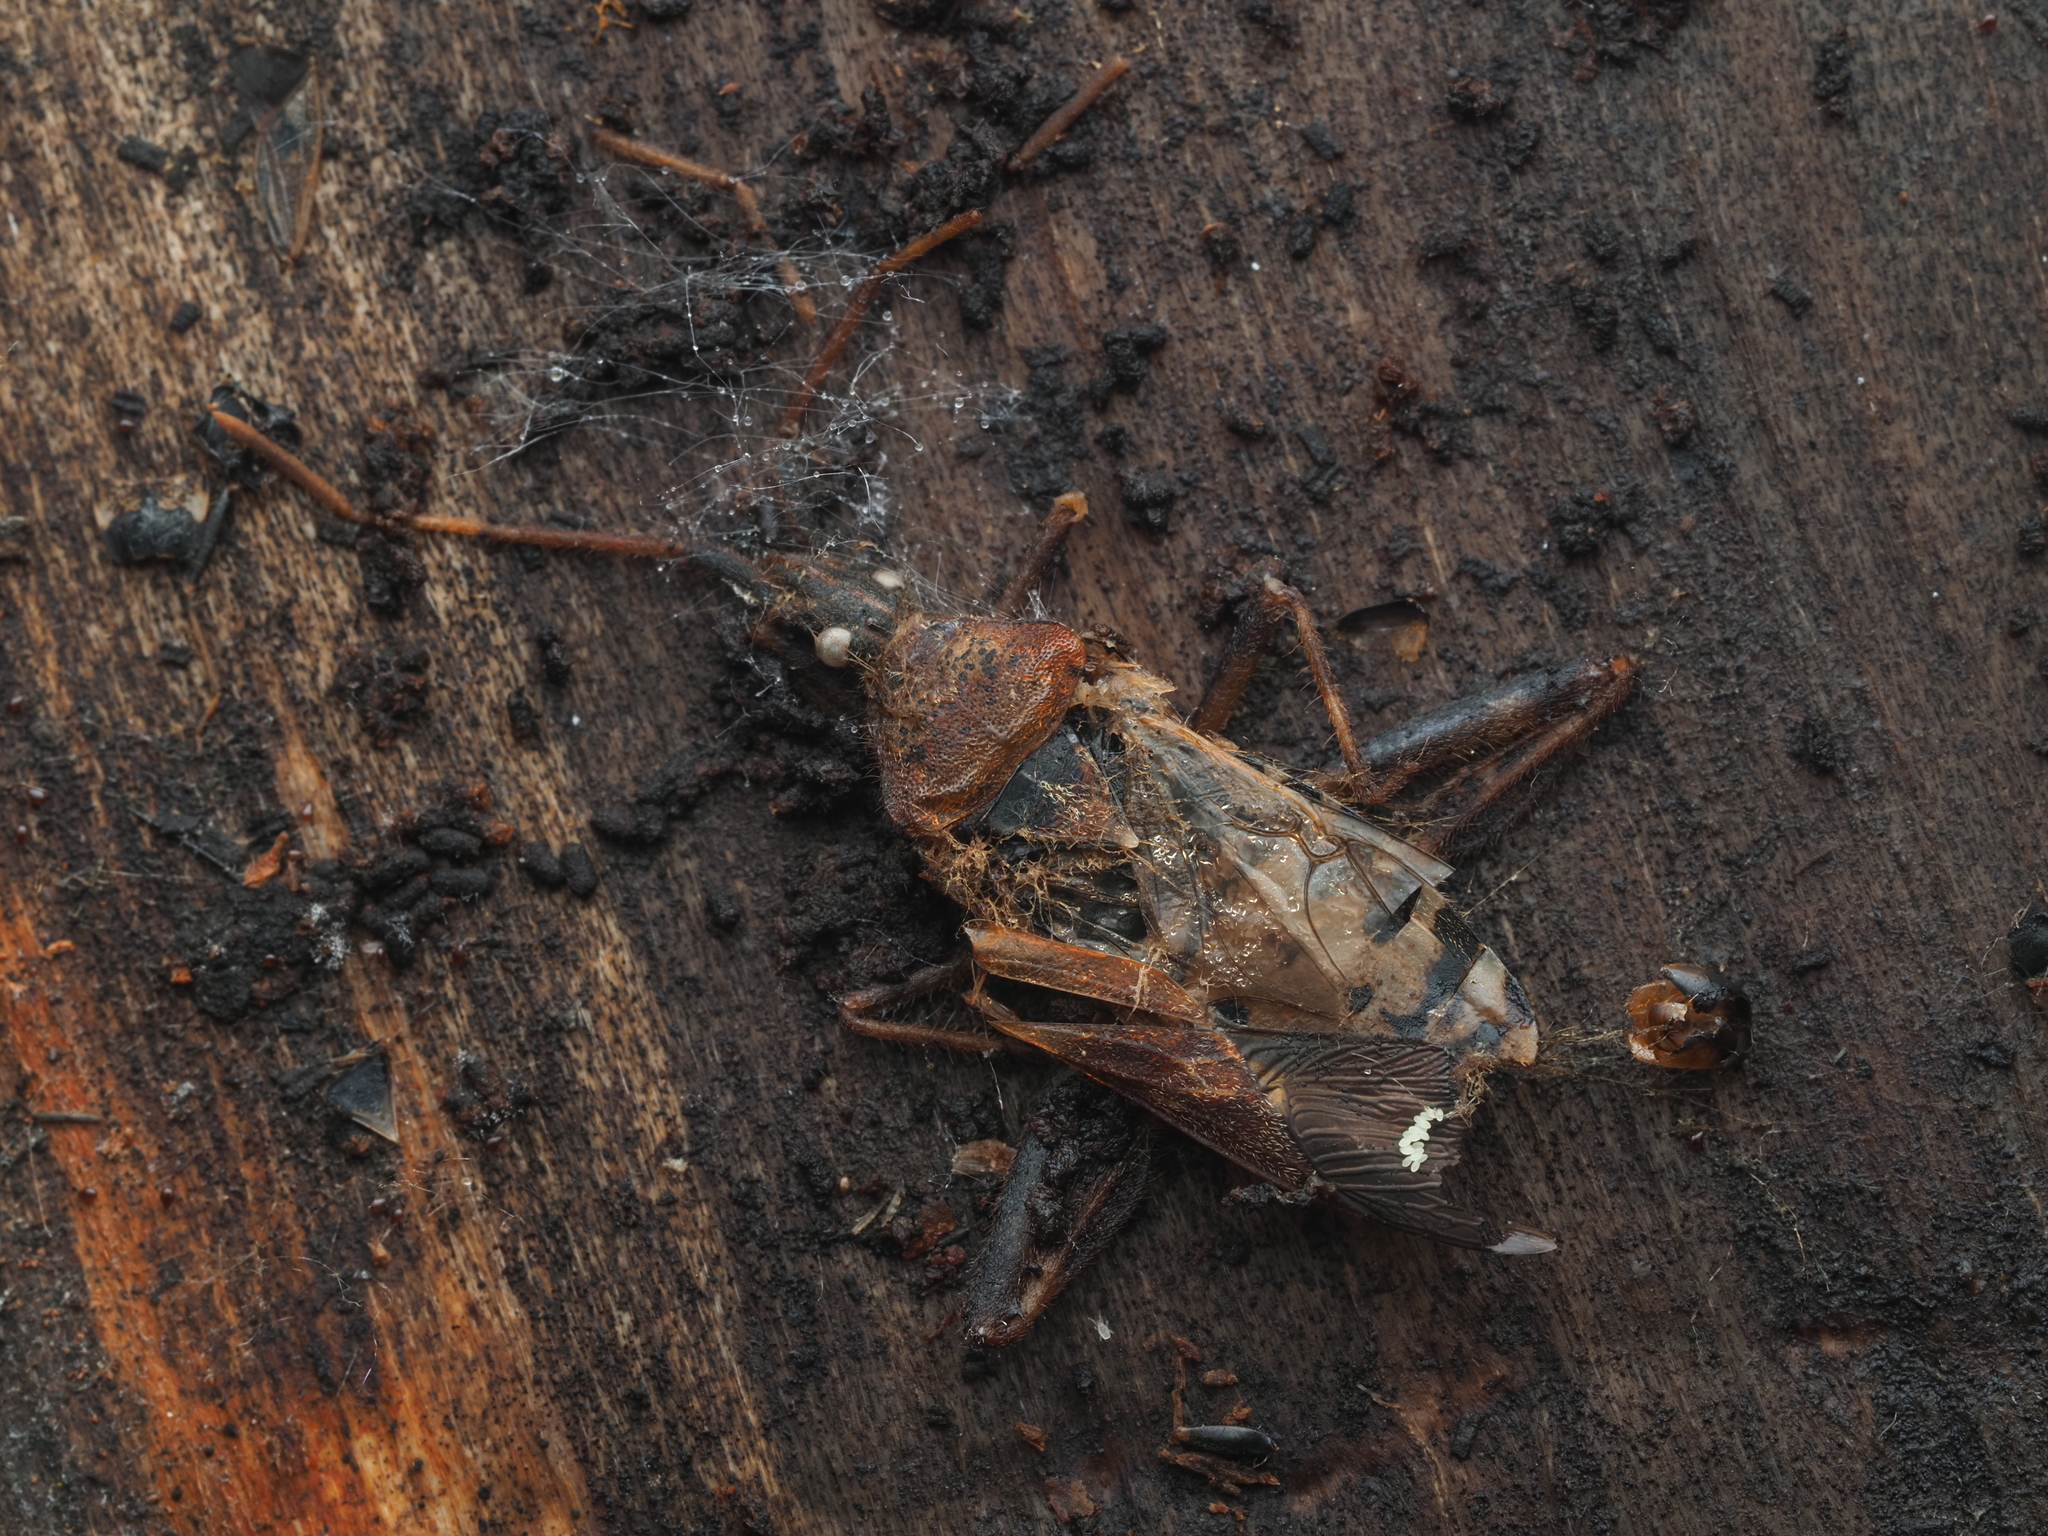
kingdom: Animalia
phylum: Arthropoda
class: Insecta
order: Hemiptera
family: Coreidae
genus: Leptoglossus
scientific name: Leptoglossus occidentalis
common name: Western conifer-seed bug
